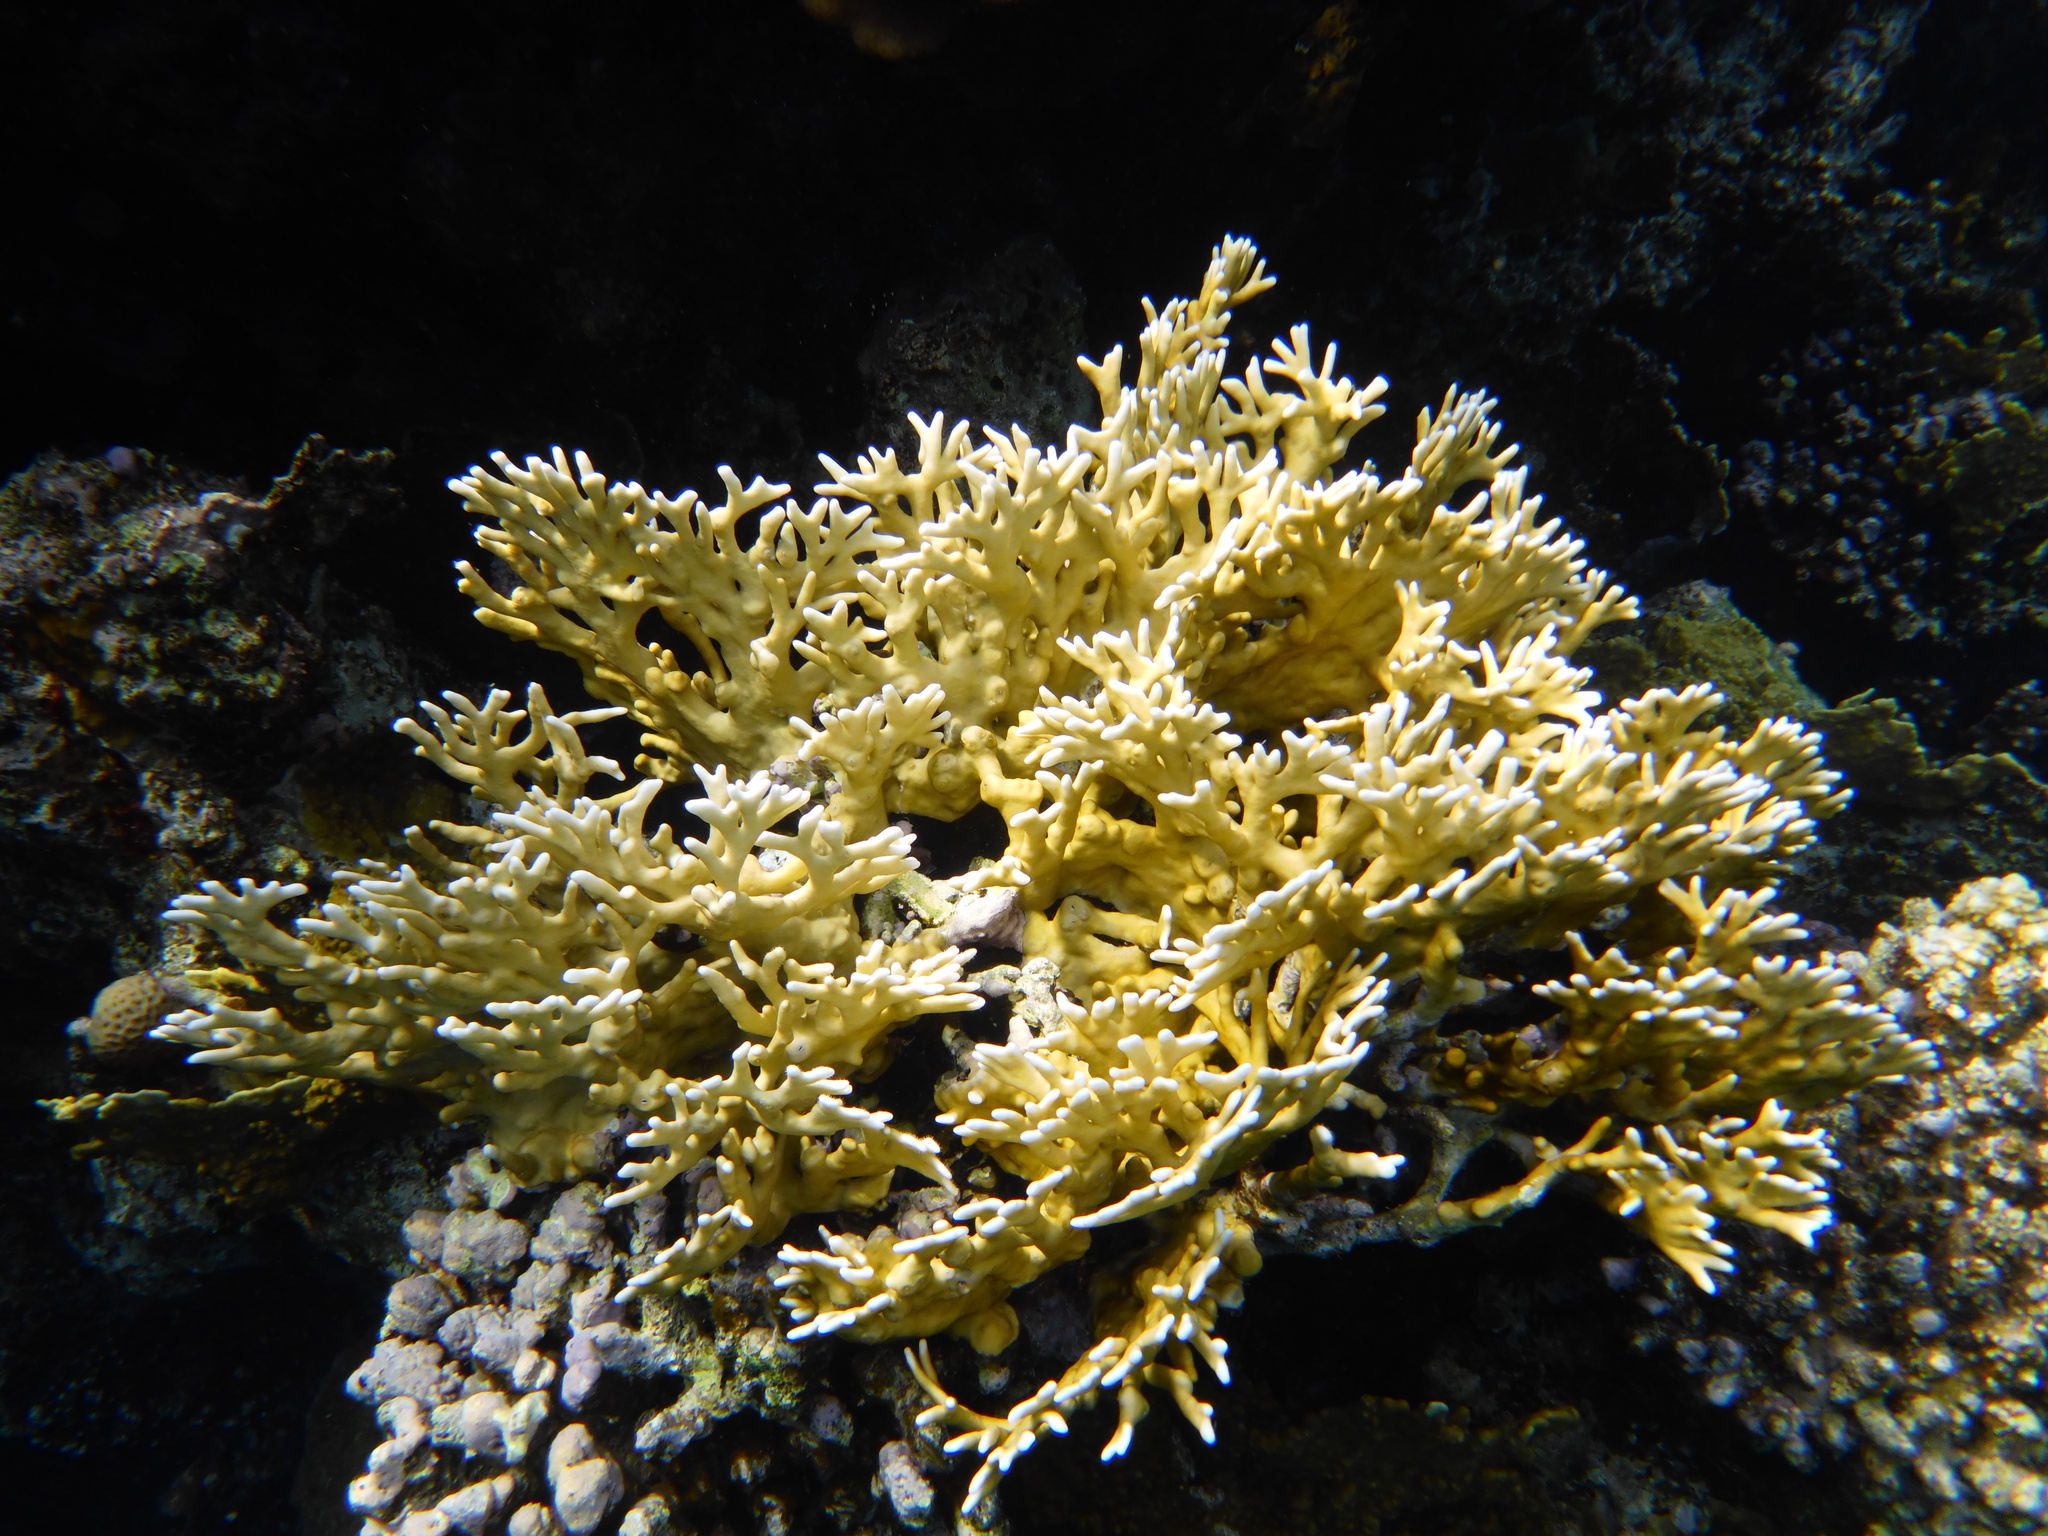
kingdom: Animalia
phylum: Cnidaria
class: Hydrozoa
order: Anthoathecata
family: Milleporidae
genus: Millepora
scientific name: Millepora dichotoma
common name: Ramified fire coral
